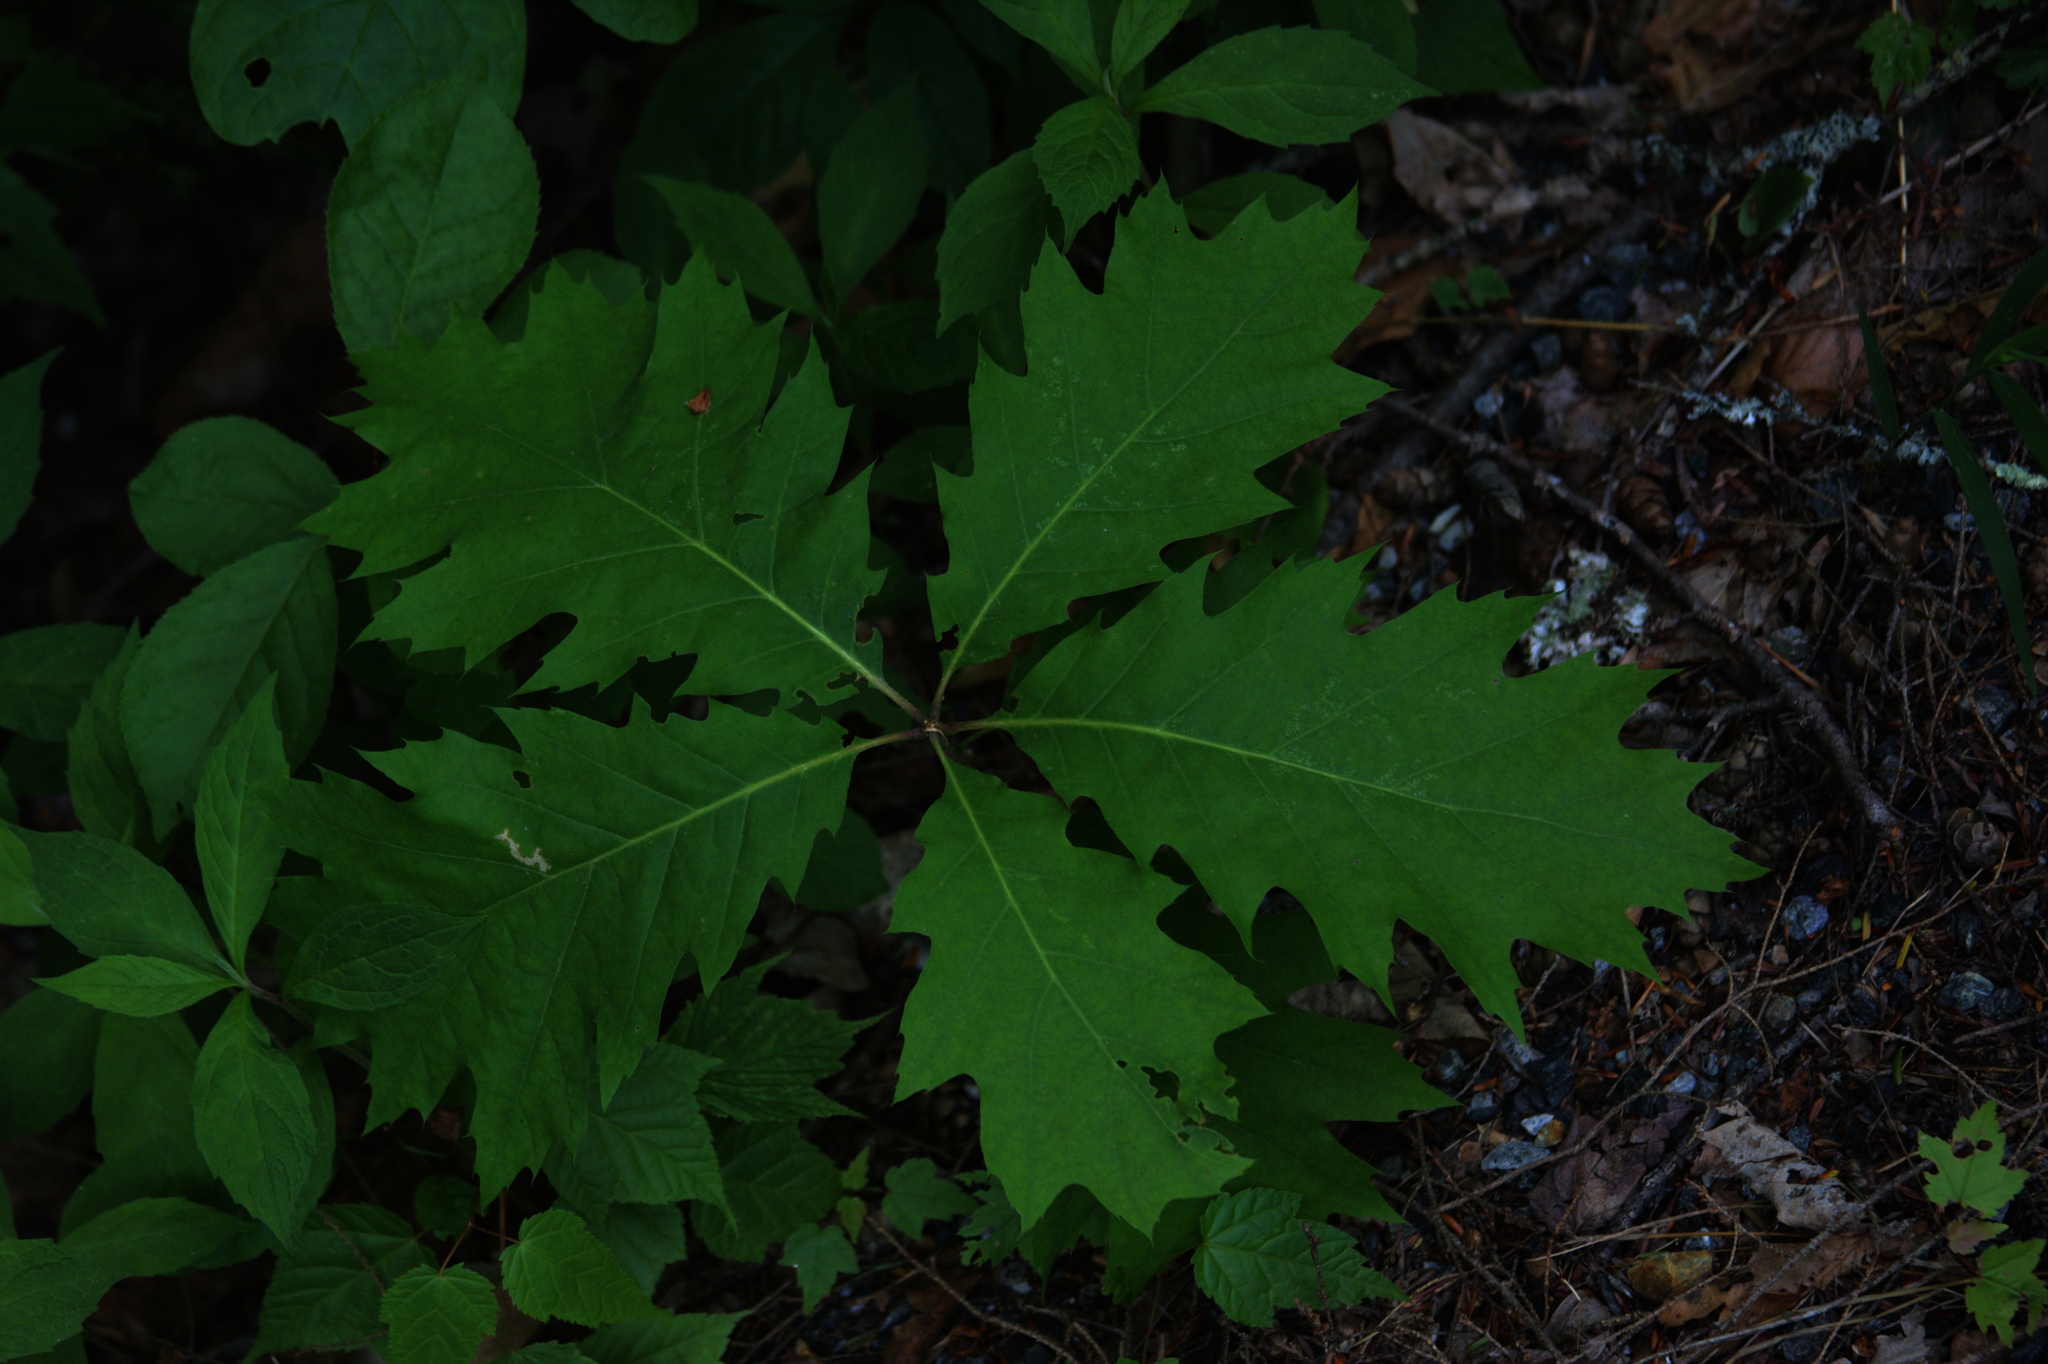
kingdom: Plantae
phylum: Tracheophyta
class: Magnoliopsida
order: Fagales
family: Fagaceae
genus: Quercus
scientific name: Quercus rubra
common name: Red oak
